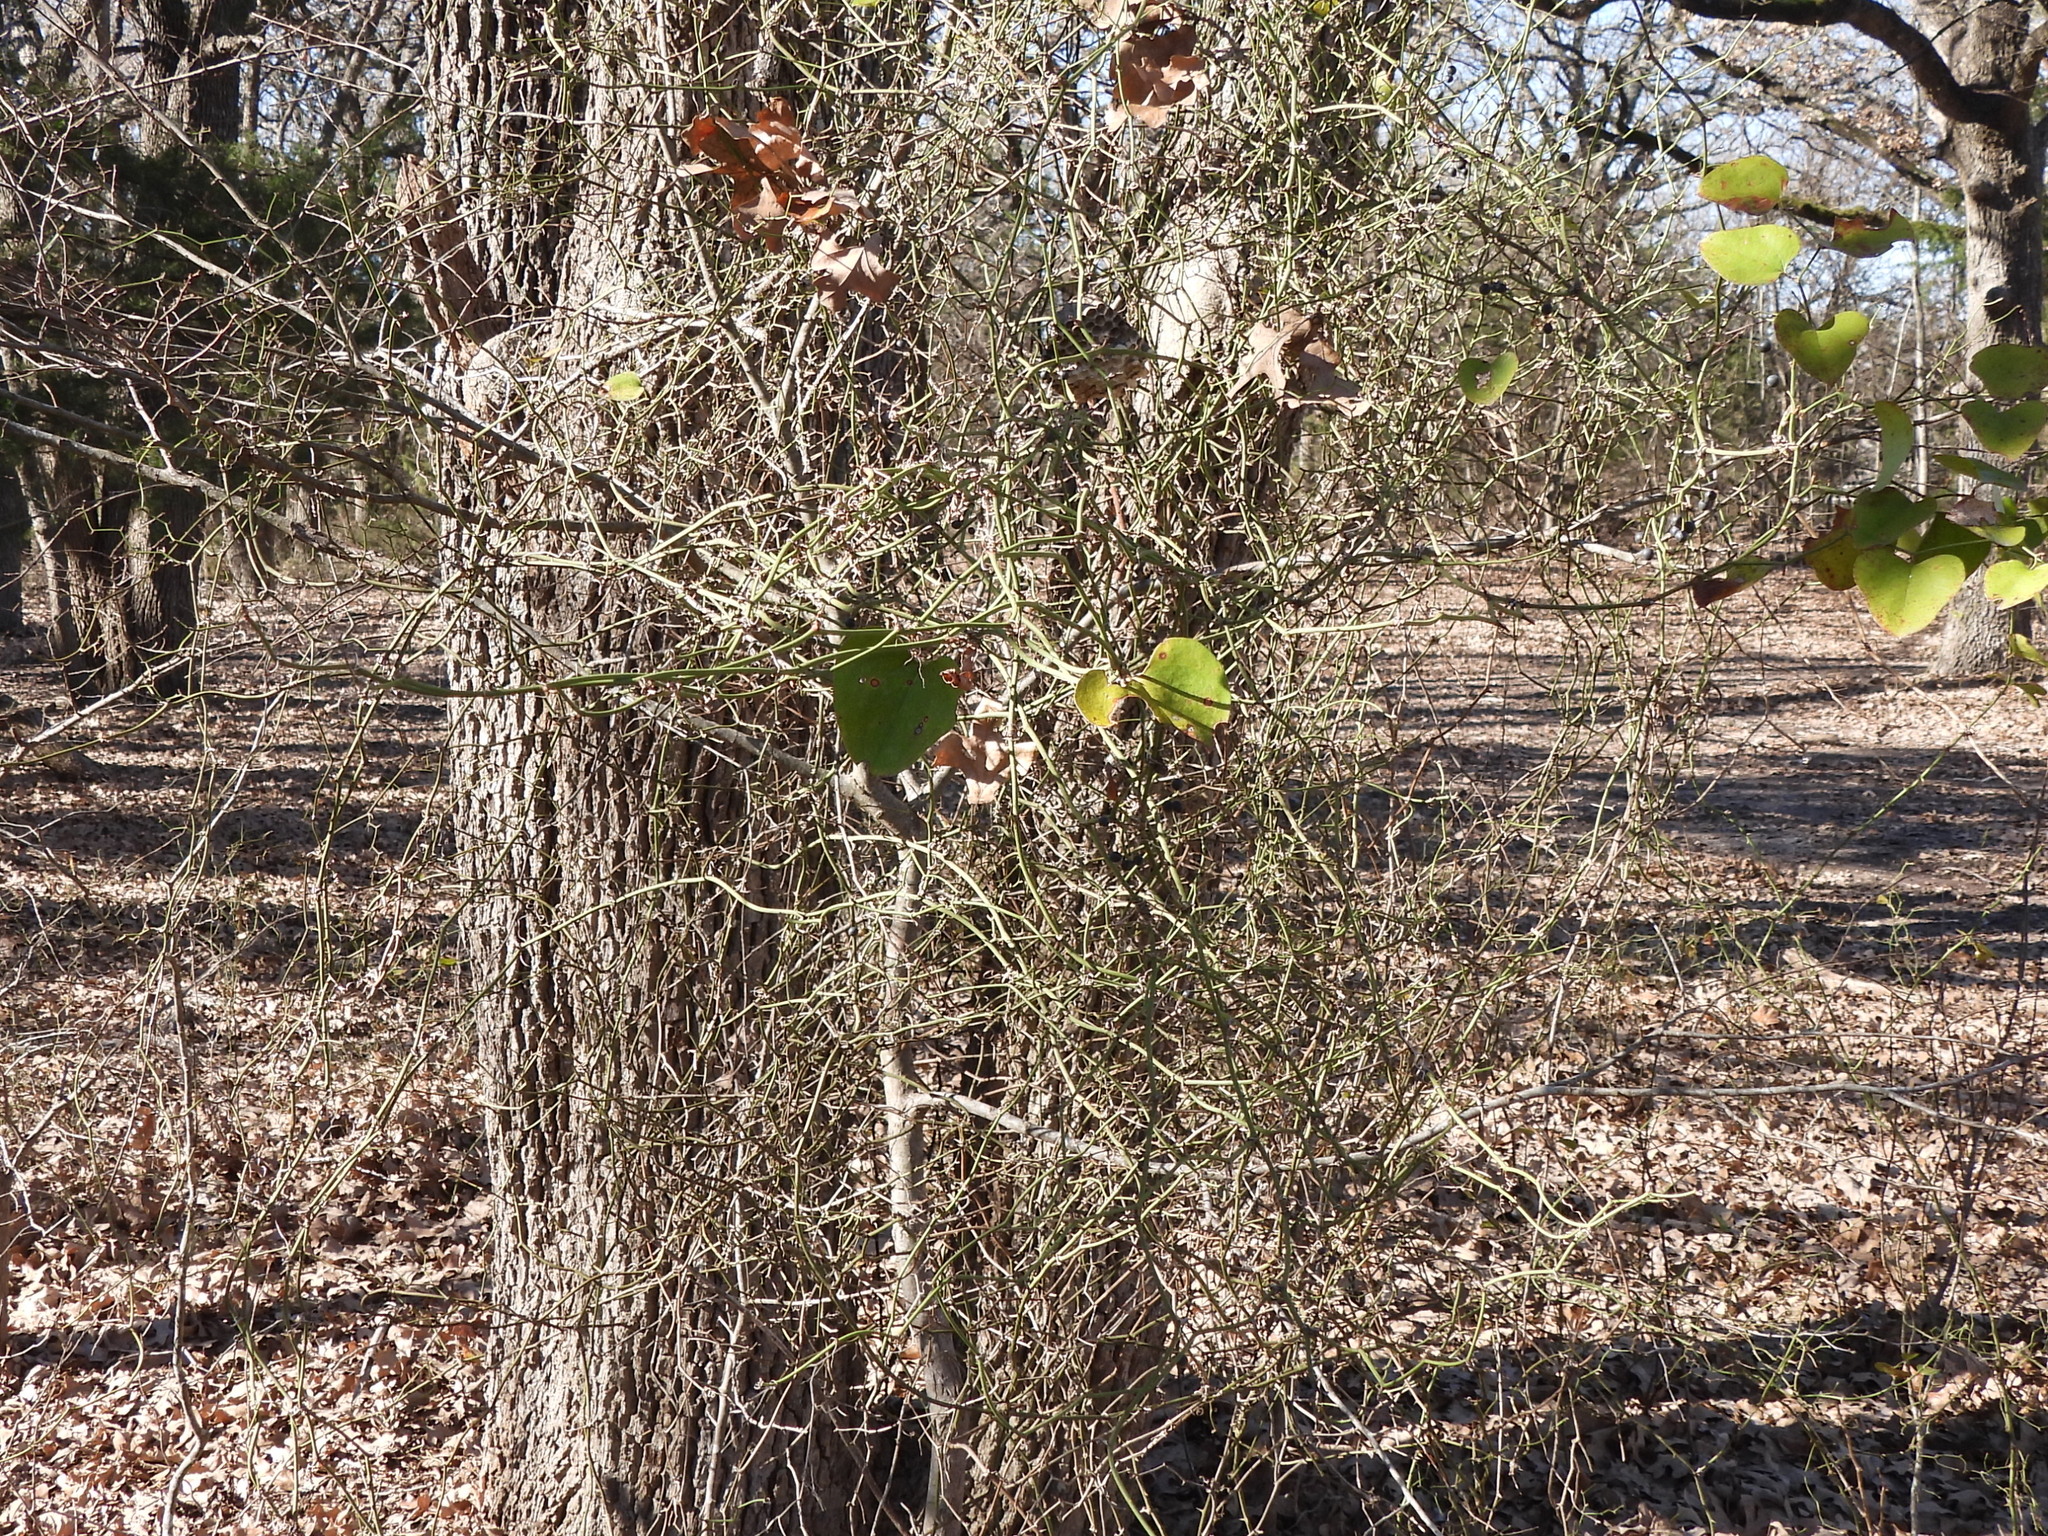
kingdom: Plantae
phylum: Tracheophyta
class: Liliopsida
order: Liliales
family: Smilacaceae
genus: Smilax
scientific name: Smilax bona-nox
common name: Catbrier
